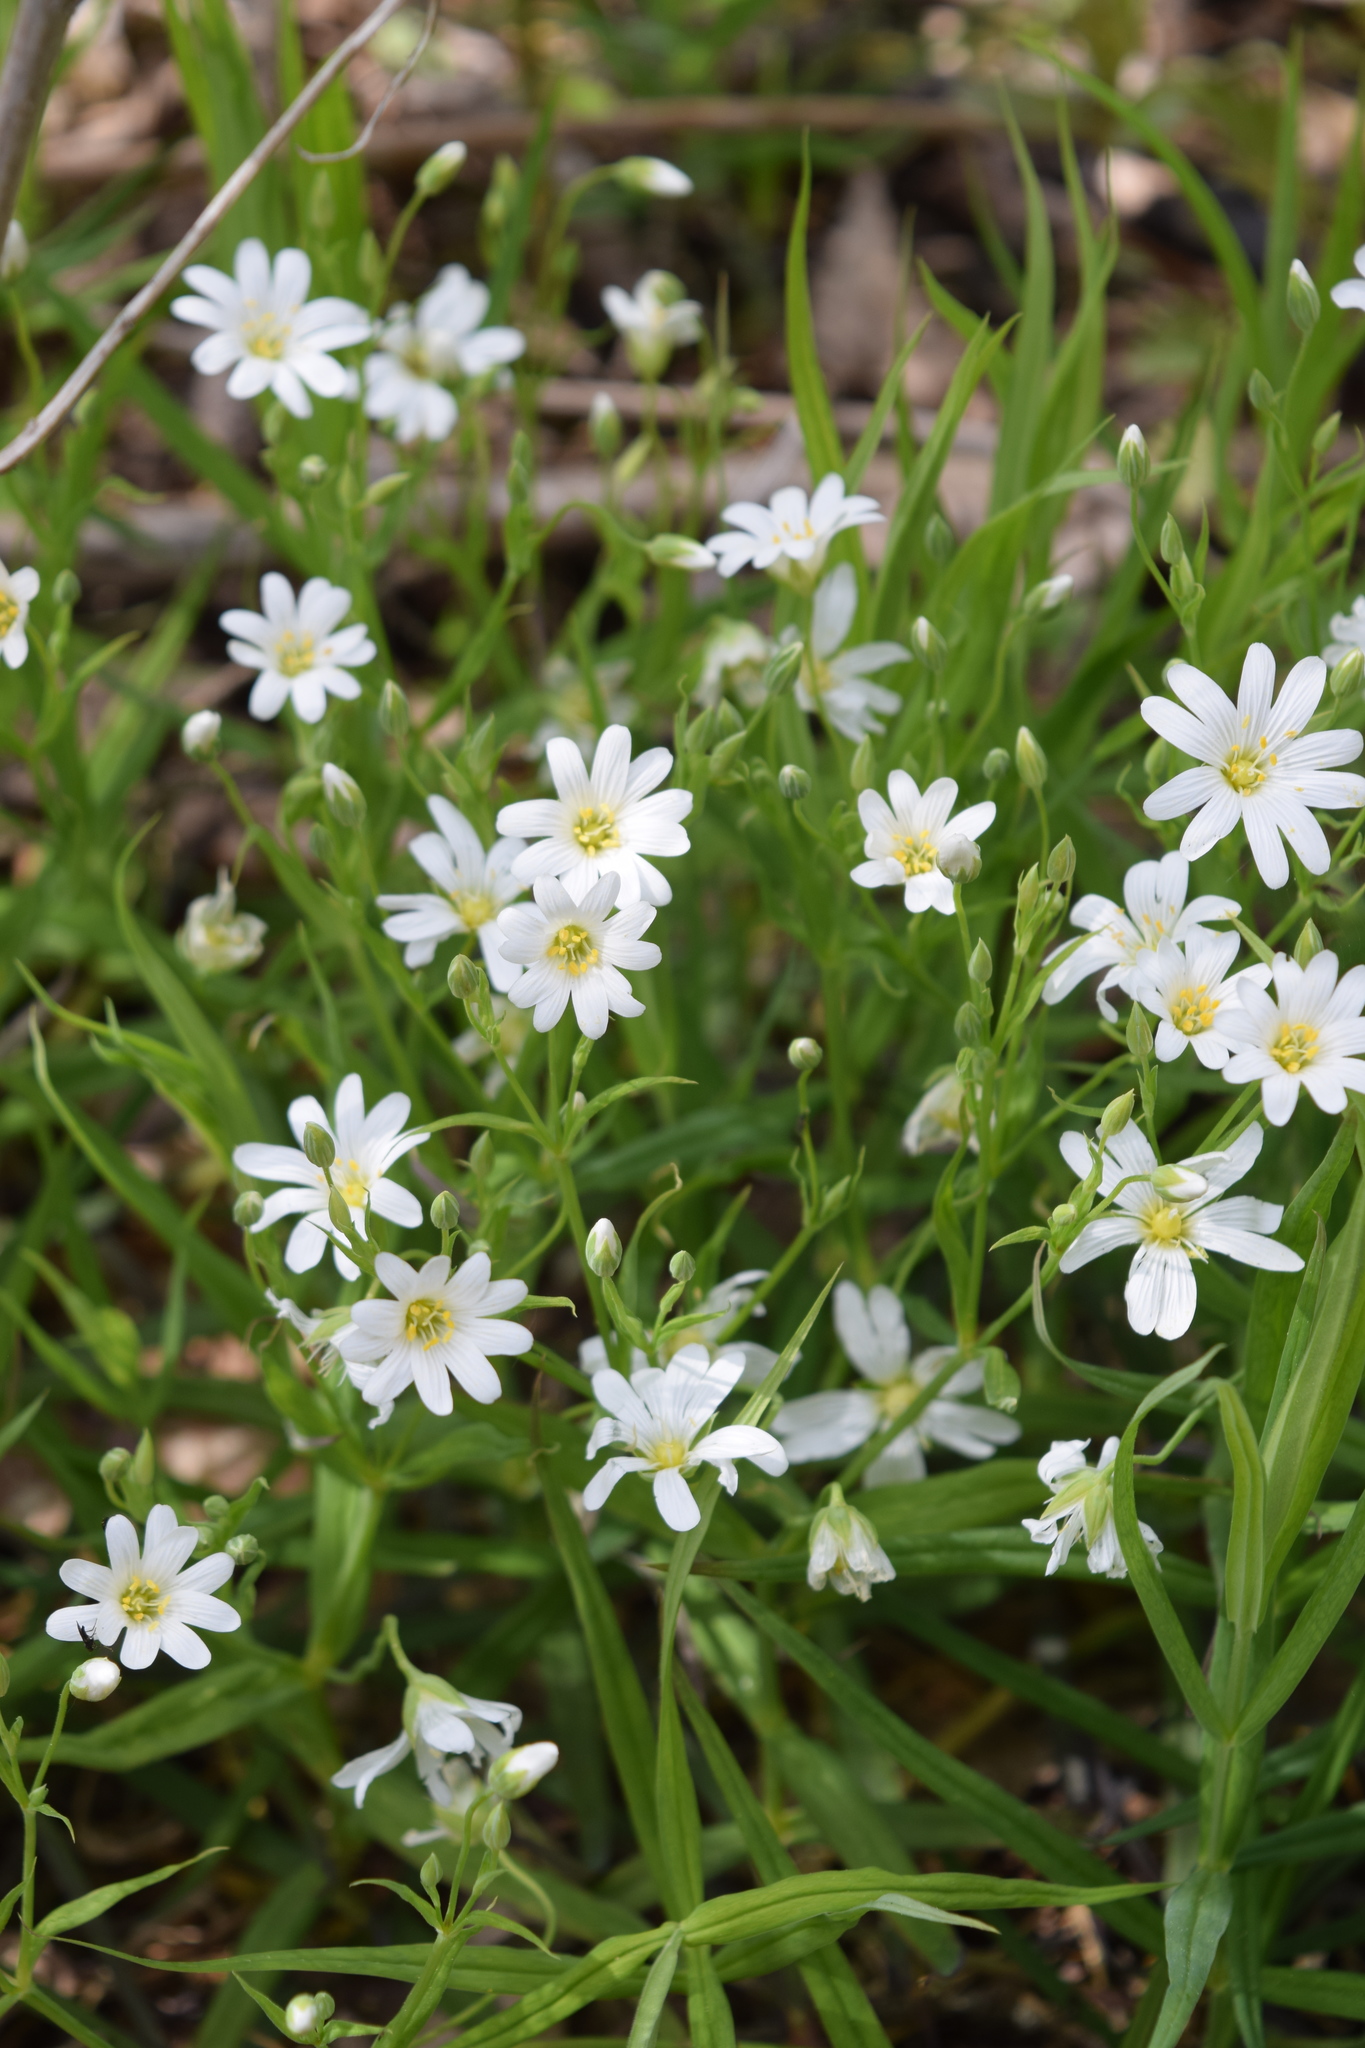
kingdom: Plantae
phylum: Tracheophyta
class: Magnoliopsida
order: Caryophyllales
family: Caryophyllaceae
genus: Rabelera
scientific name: Rabelera holostea
